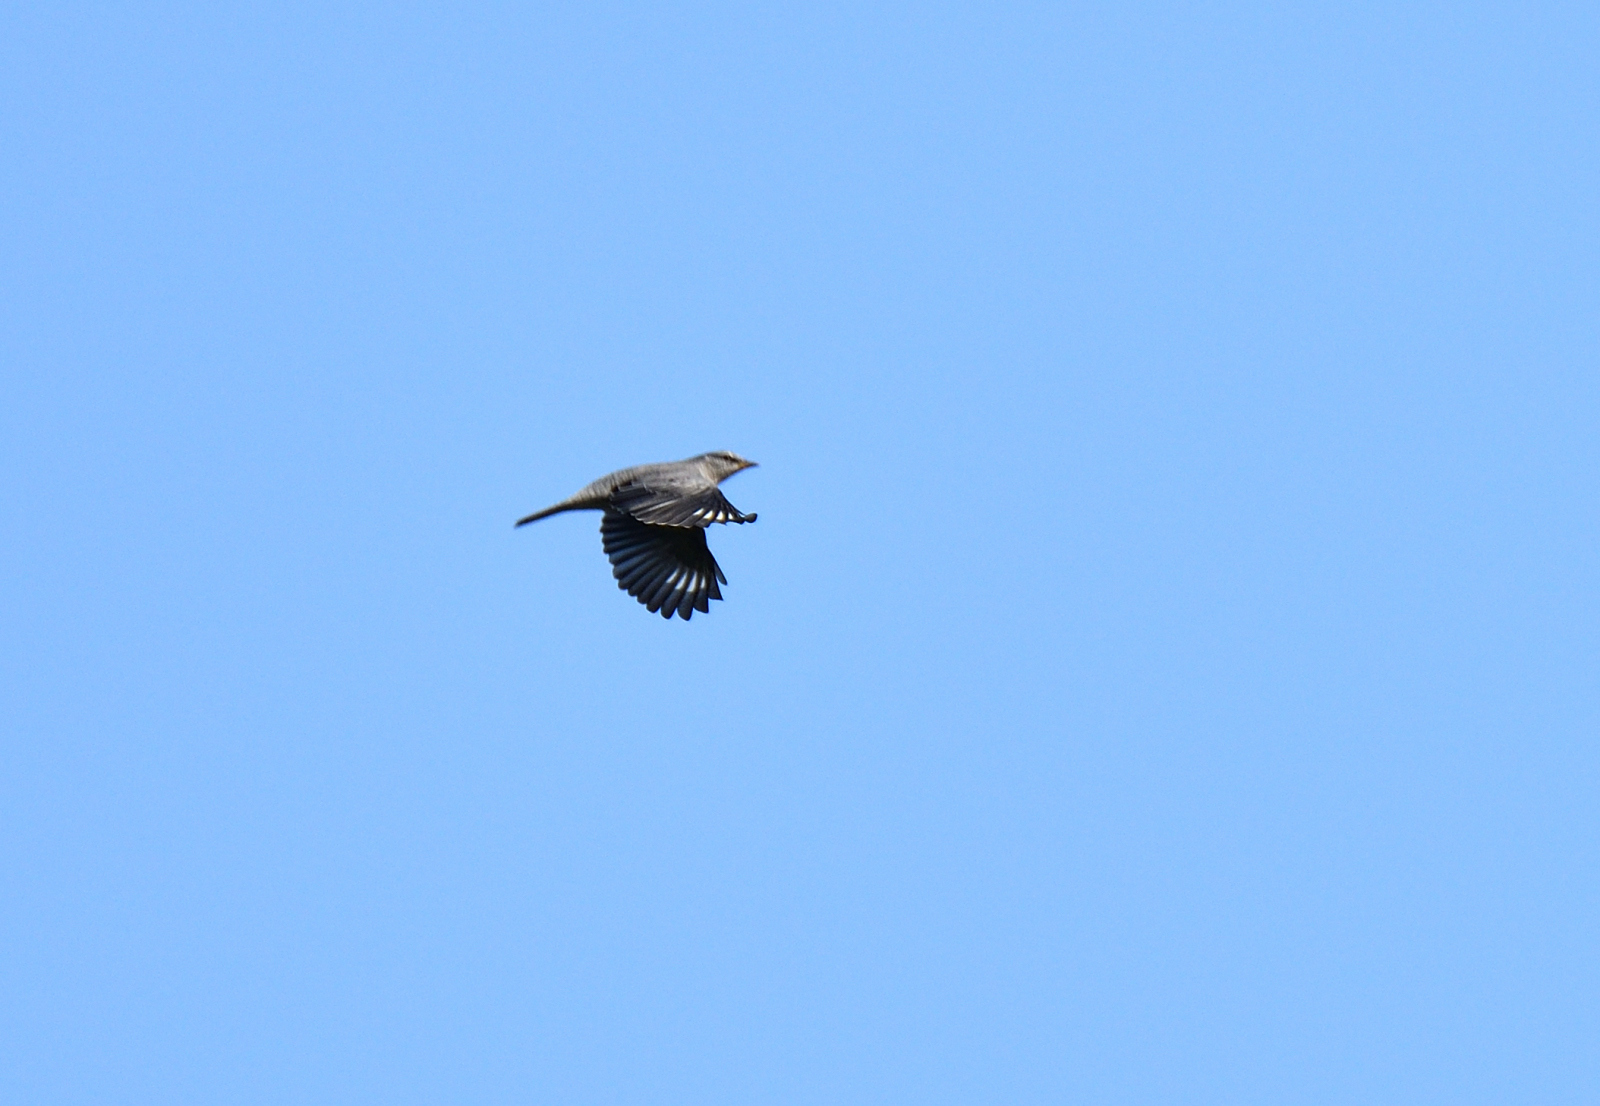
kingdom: Animalia
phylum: Chordata
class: Aves
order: Passeriformes
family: Campephagidae
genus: Coracina
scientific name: Coracina melanoptera
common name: Black-headed cuckooshrike
